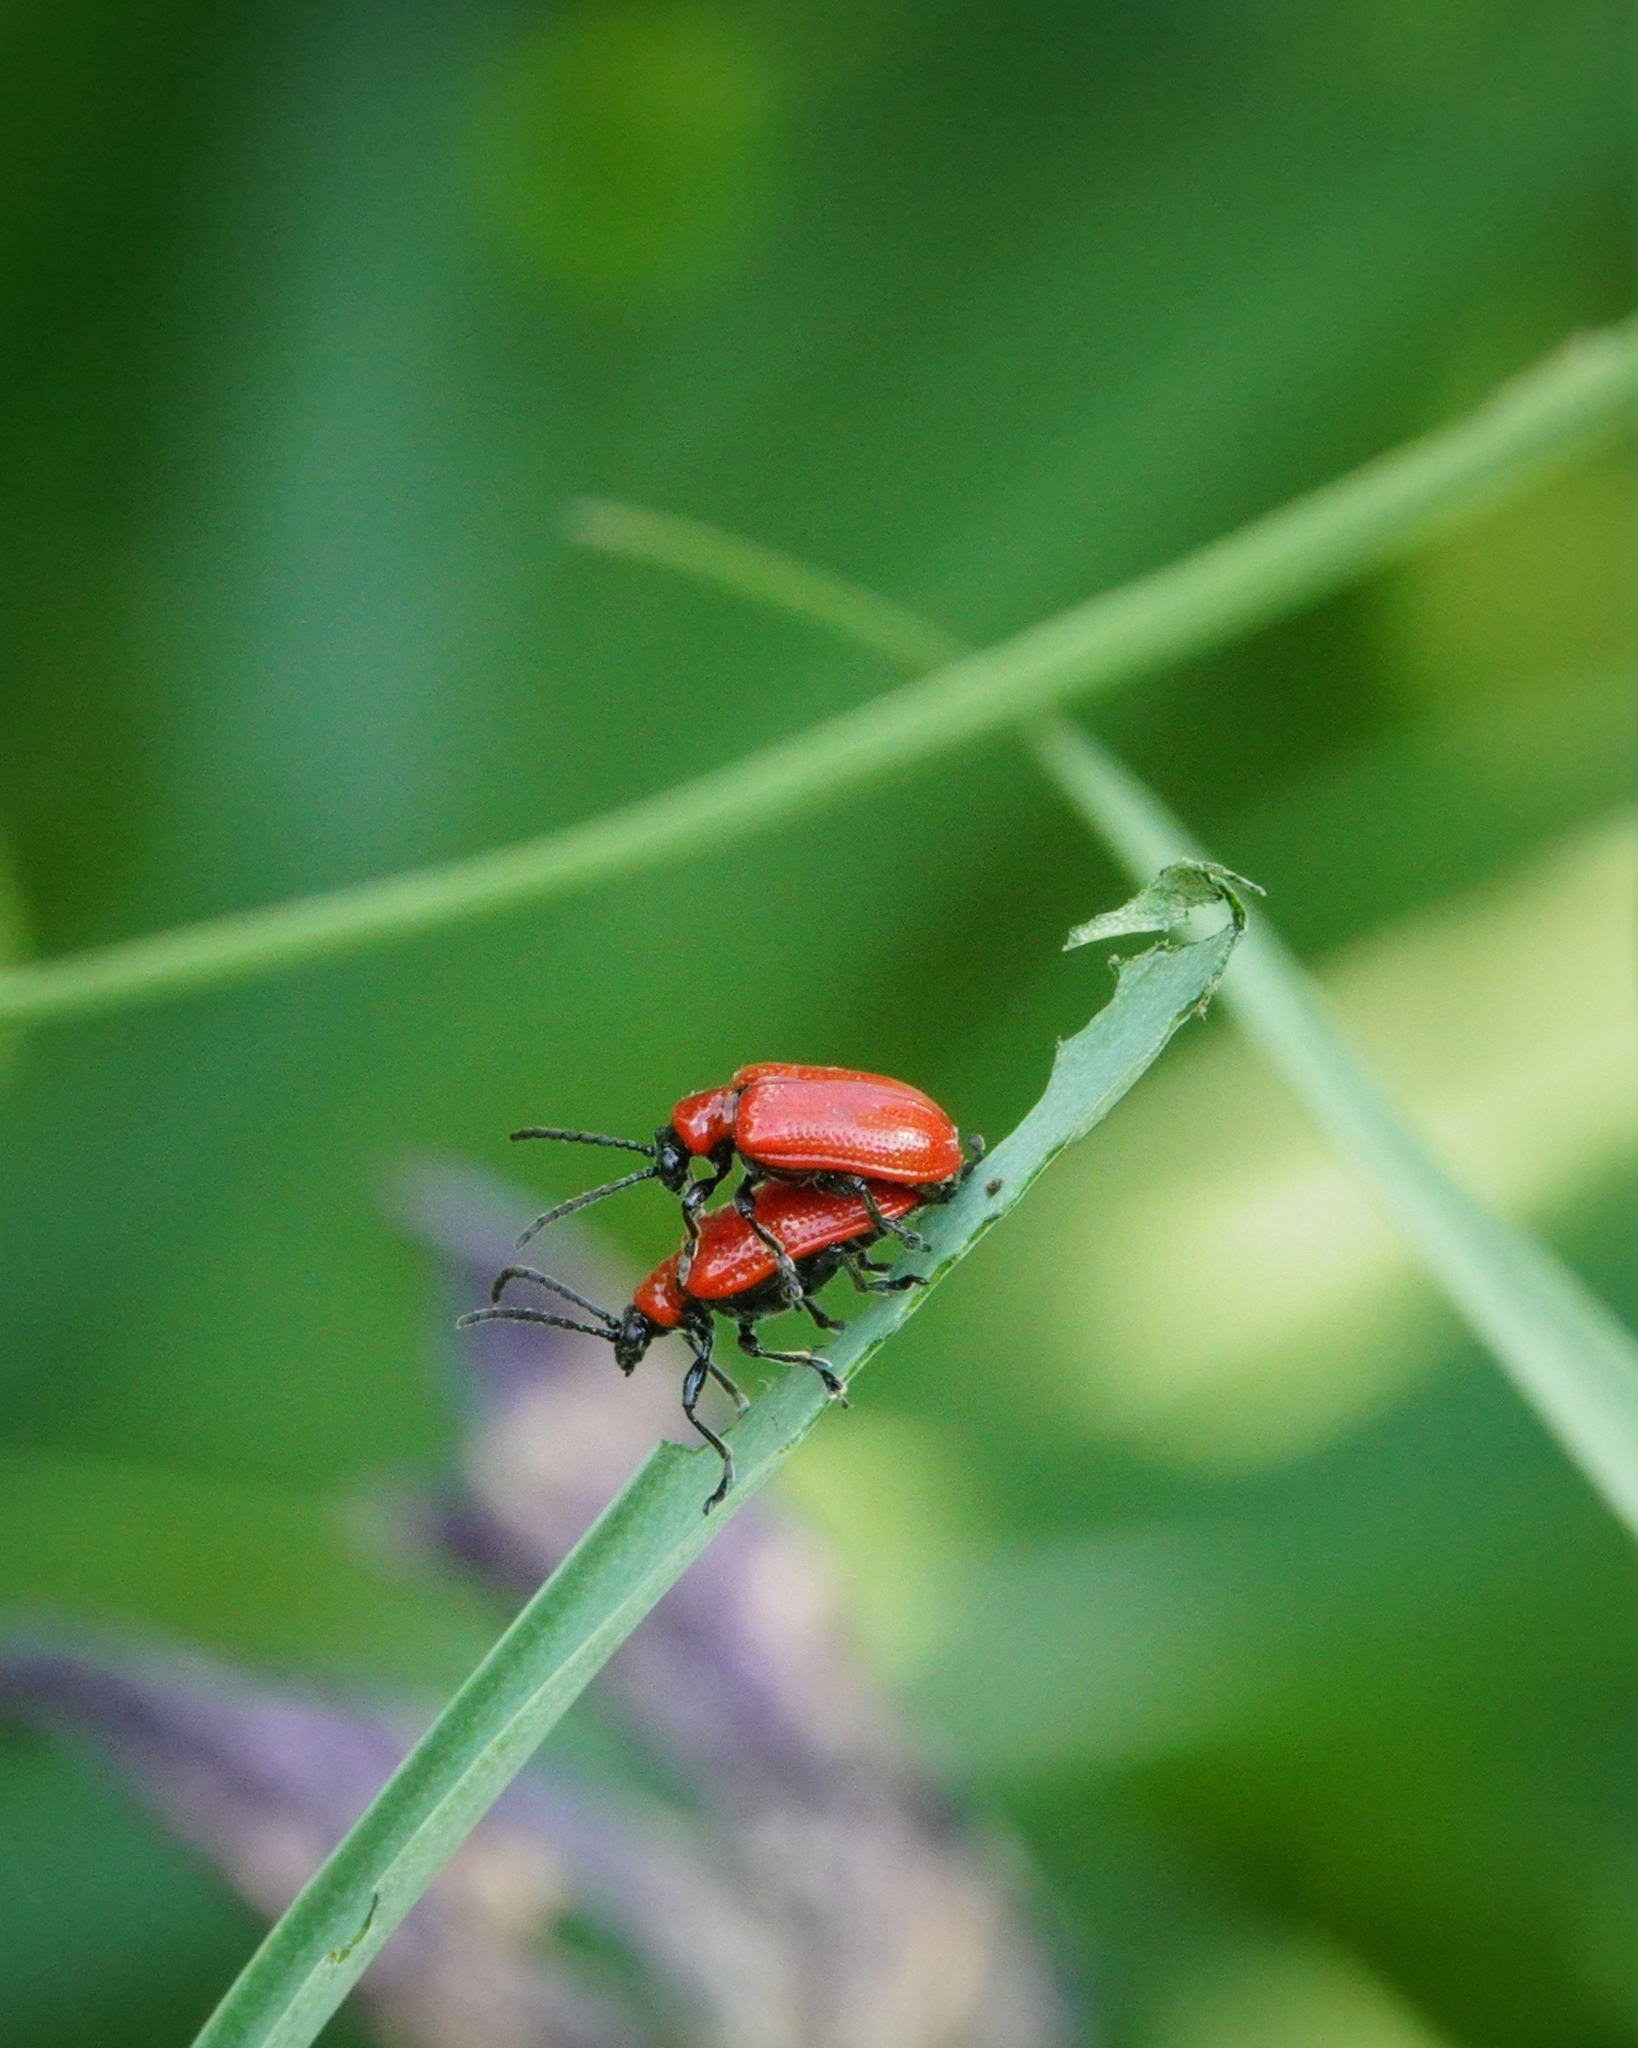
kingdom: Animalia
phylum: Arthropoda
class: Insecta
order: Coleoptera
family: Chrysomelidae
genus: Lilioceris
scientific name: Lilioceris lilii
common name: Lily beetle
